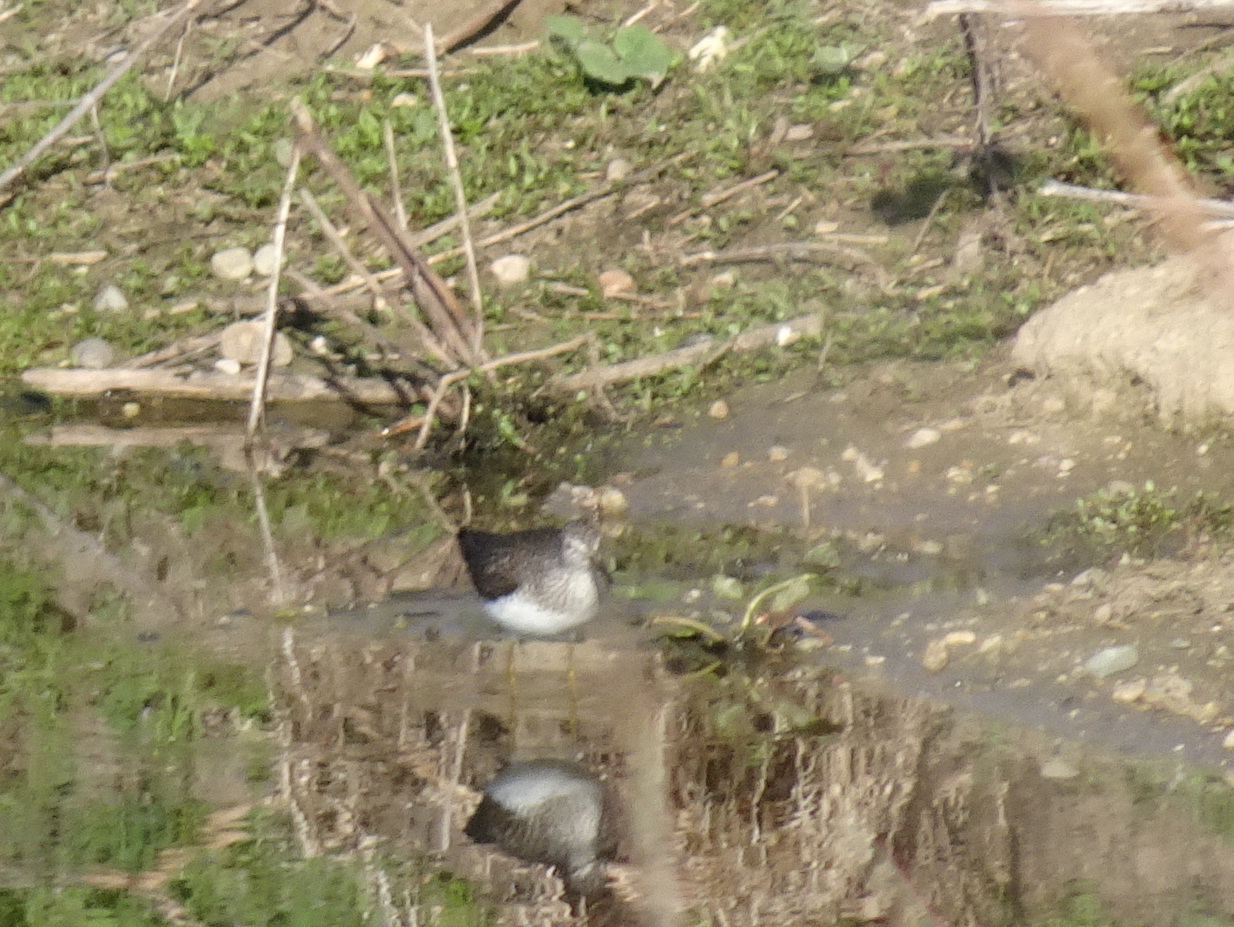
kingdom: Animalia
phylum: Chordata
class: Aves
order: Charadriiformes
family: Scolopacidae
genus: Tringa
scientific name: Tringa solitaria
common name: Solitary sandpiper
